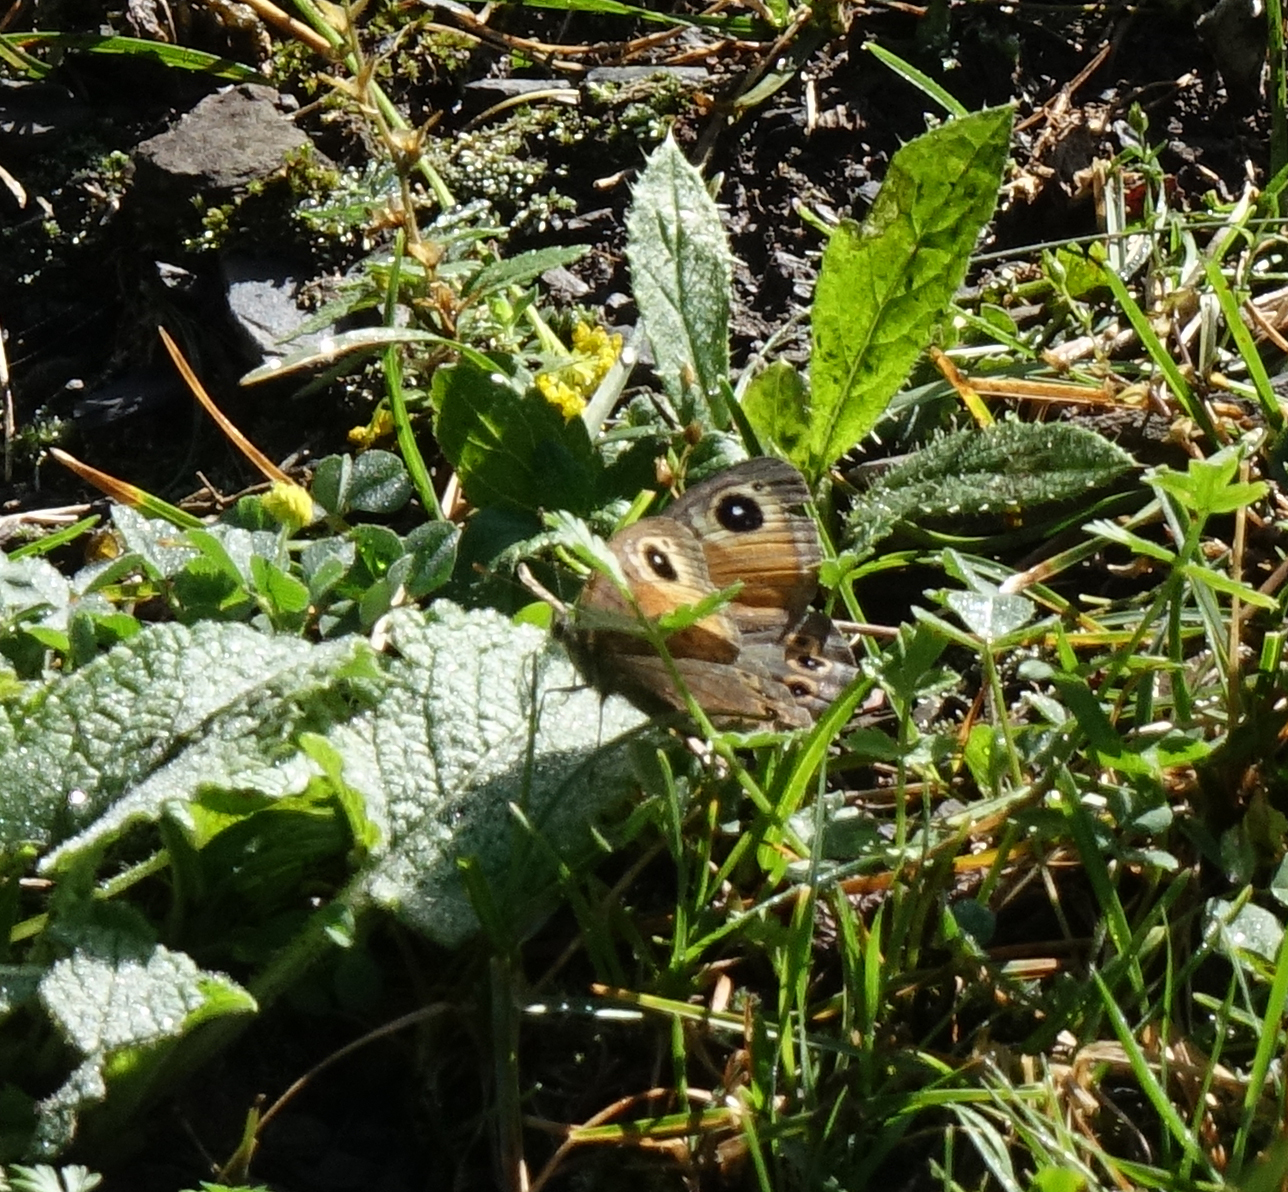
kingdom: Animalia
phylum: Arthropoda
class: Insecta
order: Lepidoptera
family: Nymphalidae
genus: Pararge
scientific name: Pararge Lasiommata maera
